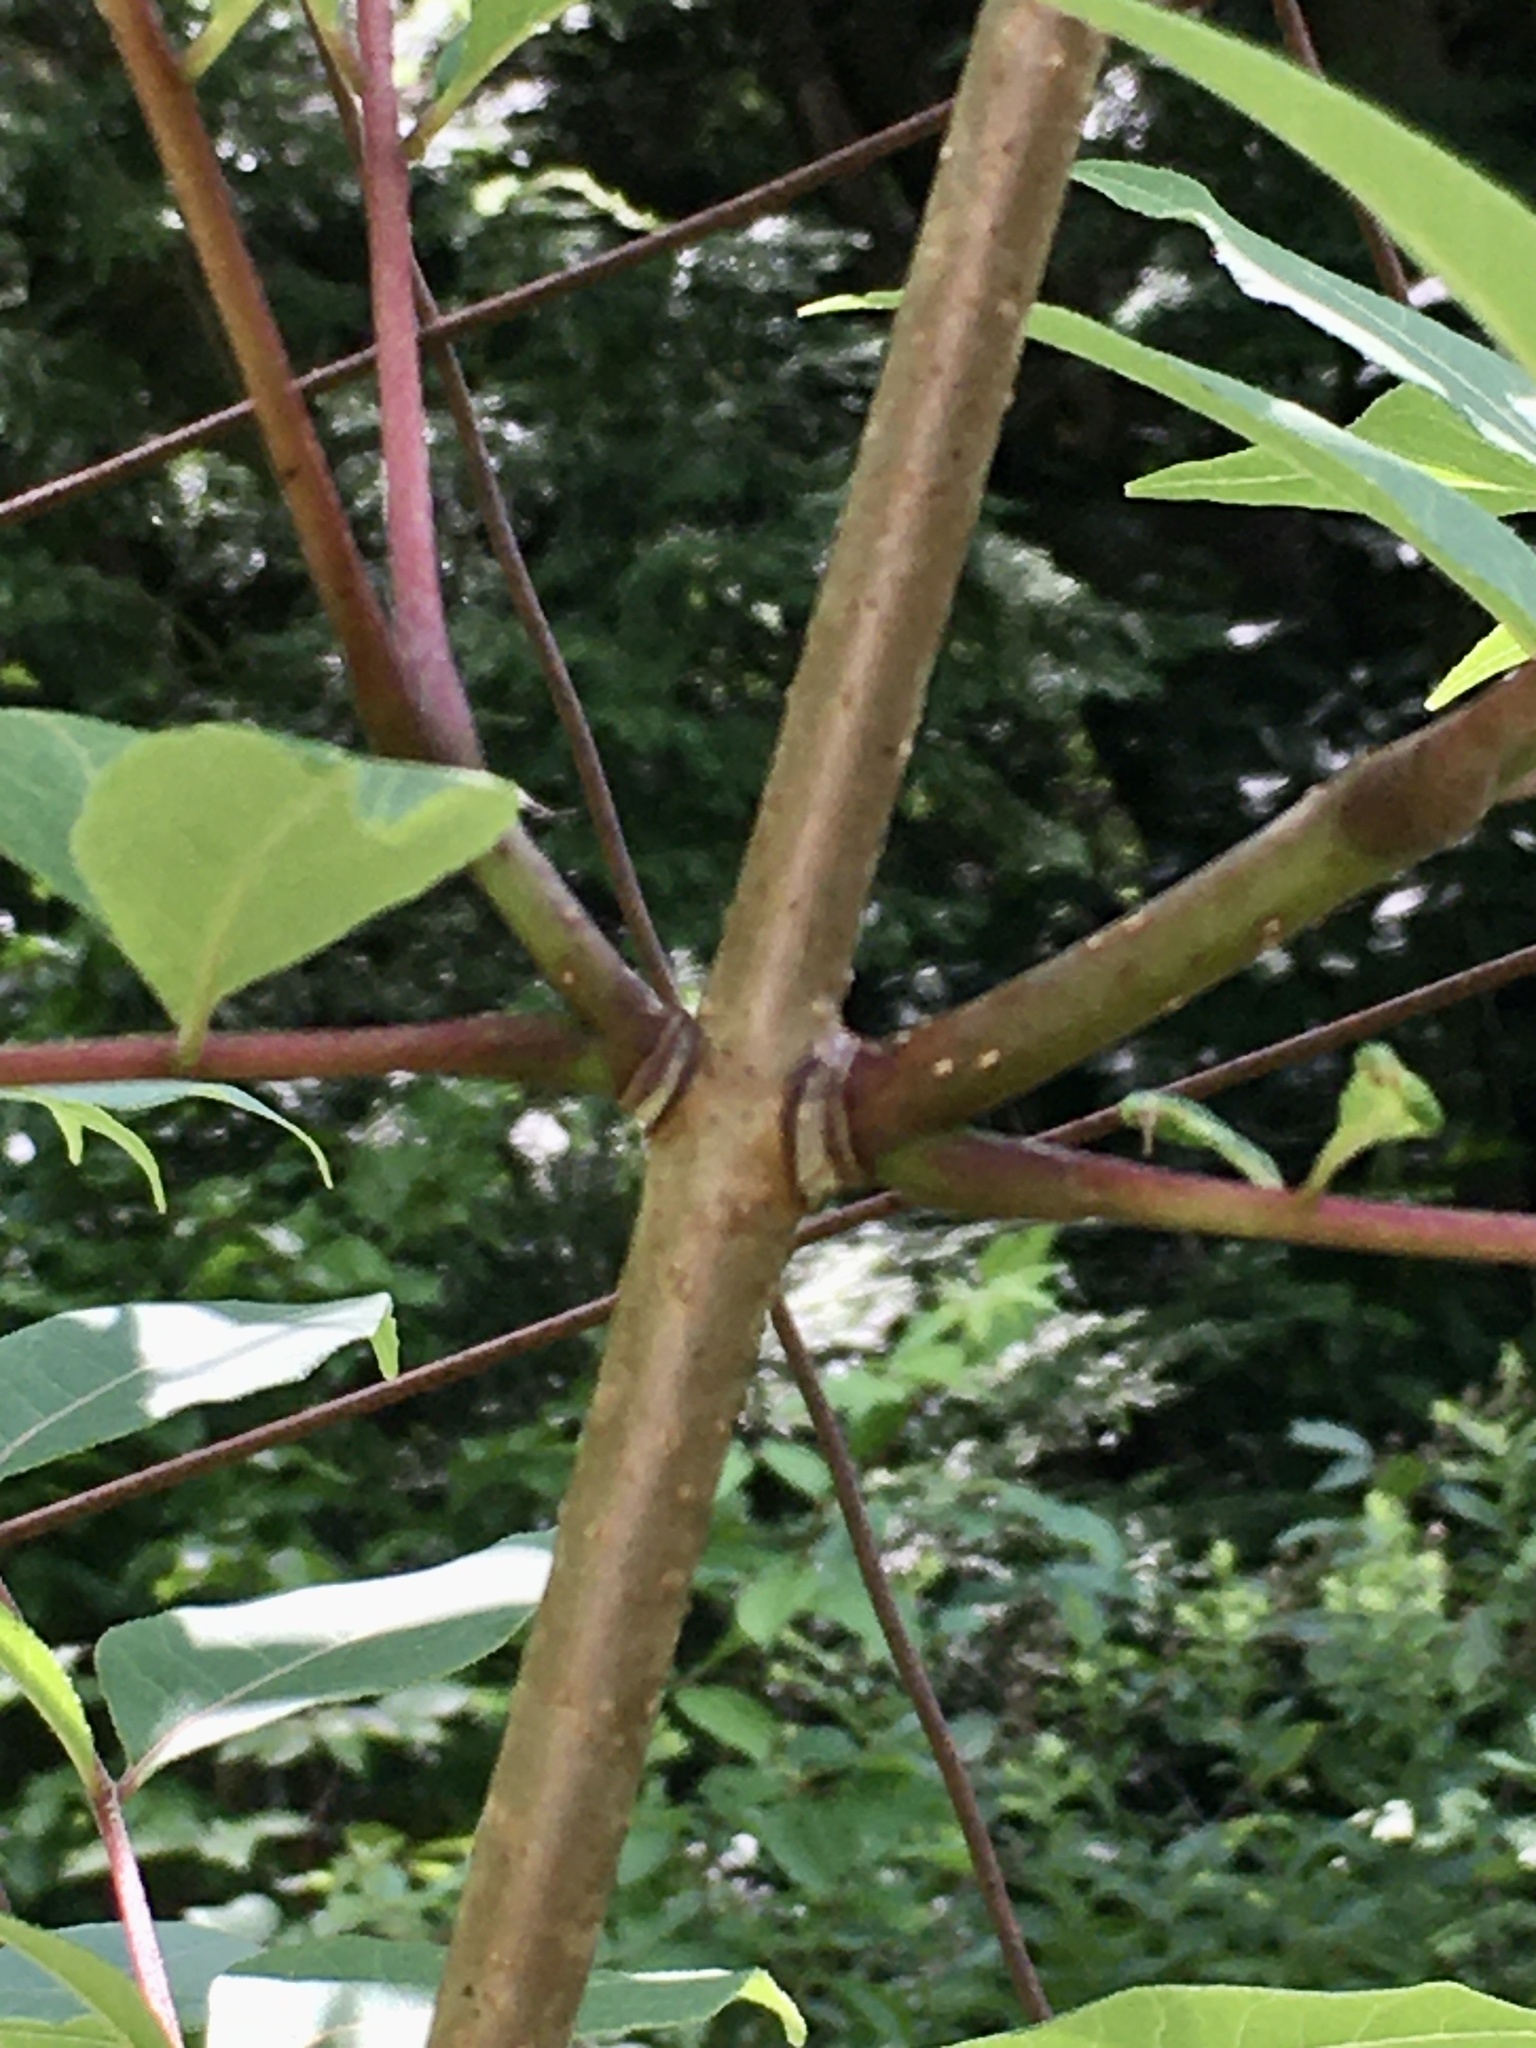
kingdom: Plantae
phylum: Tracheophyta
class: Magnoliopsida
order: Sapindales
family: Rutaceae
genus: Phellodendron
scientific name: Phellodendron amurense
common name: Amur corktree
